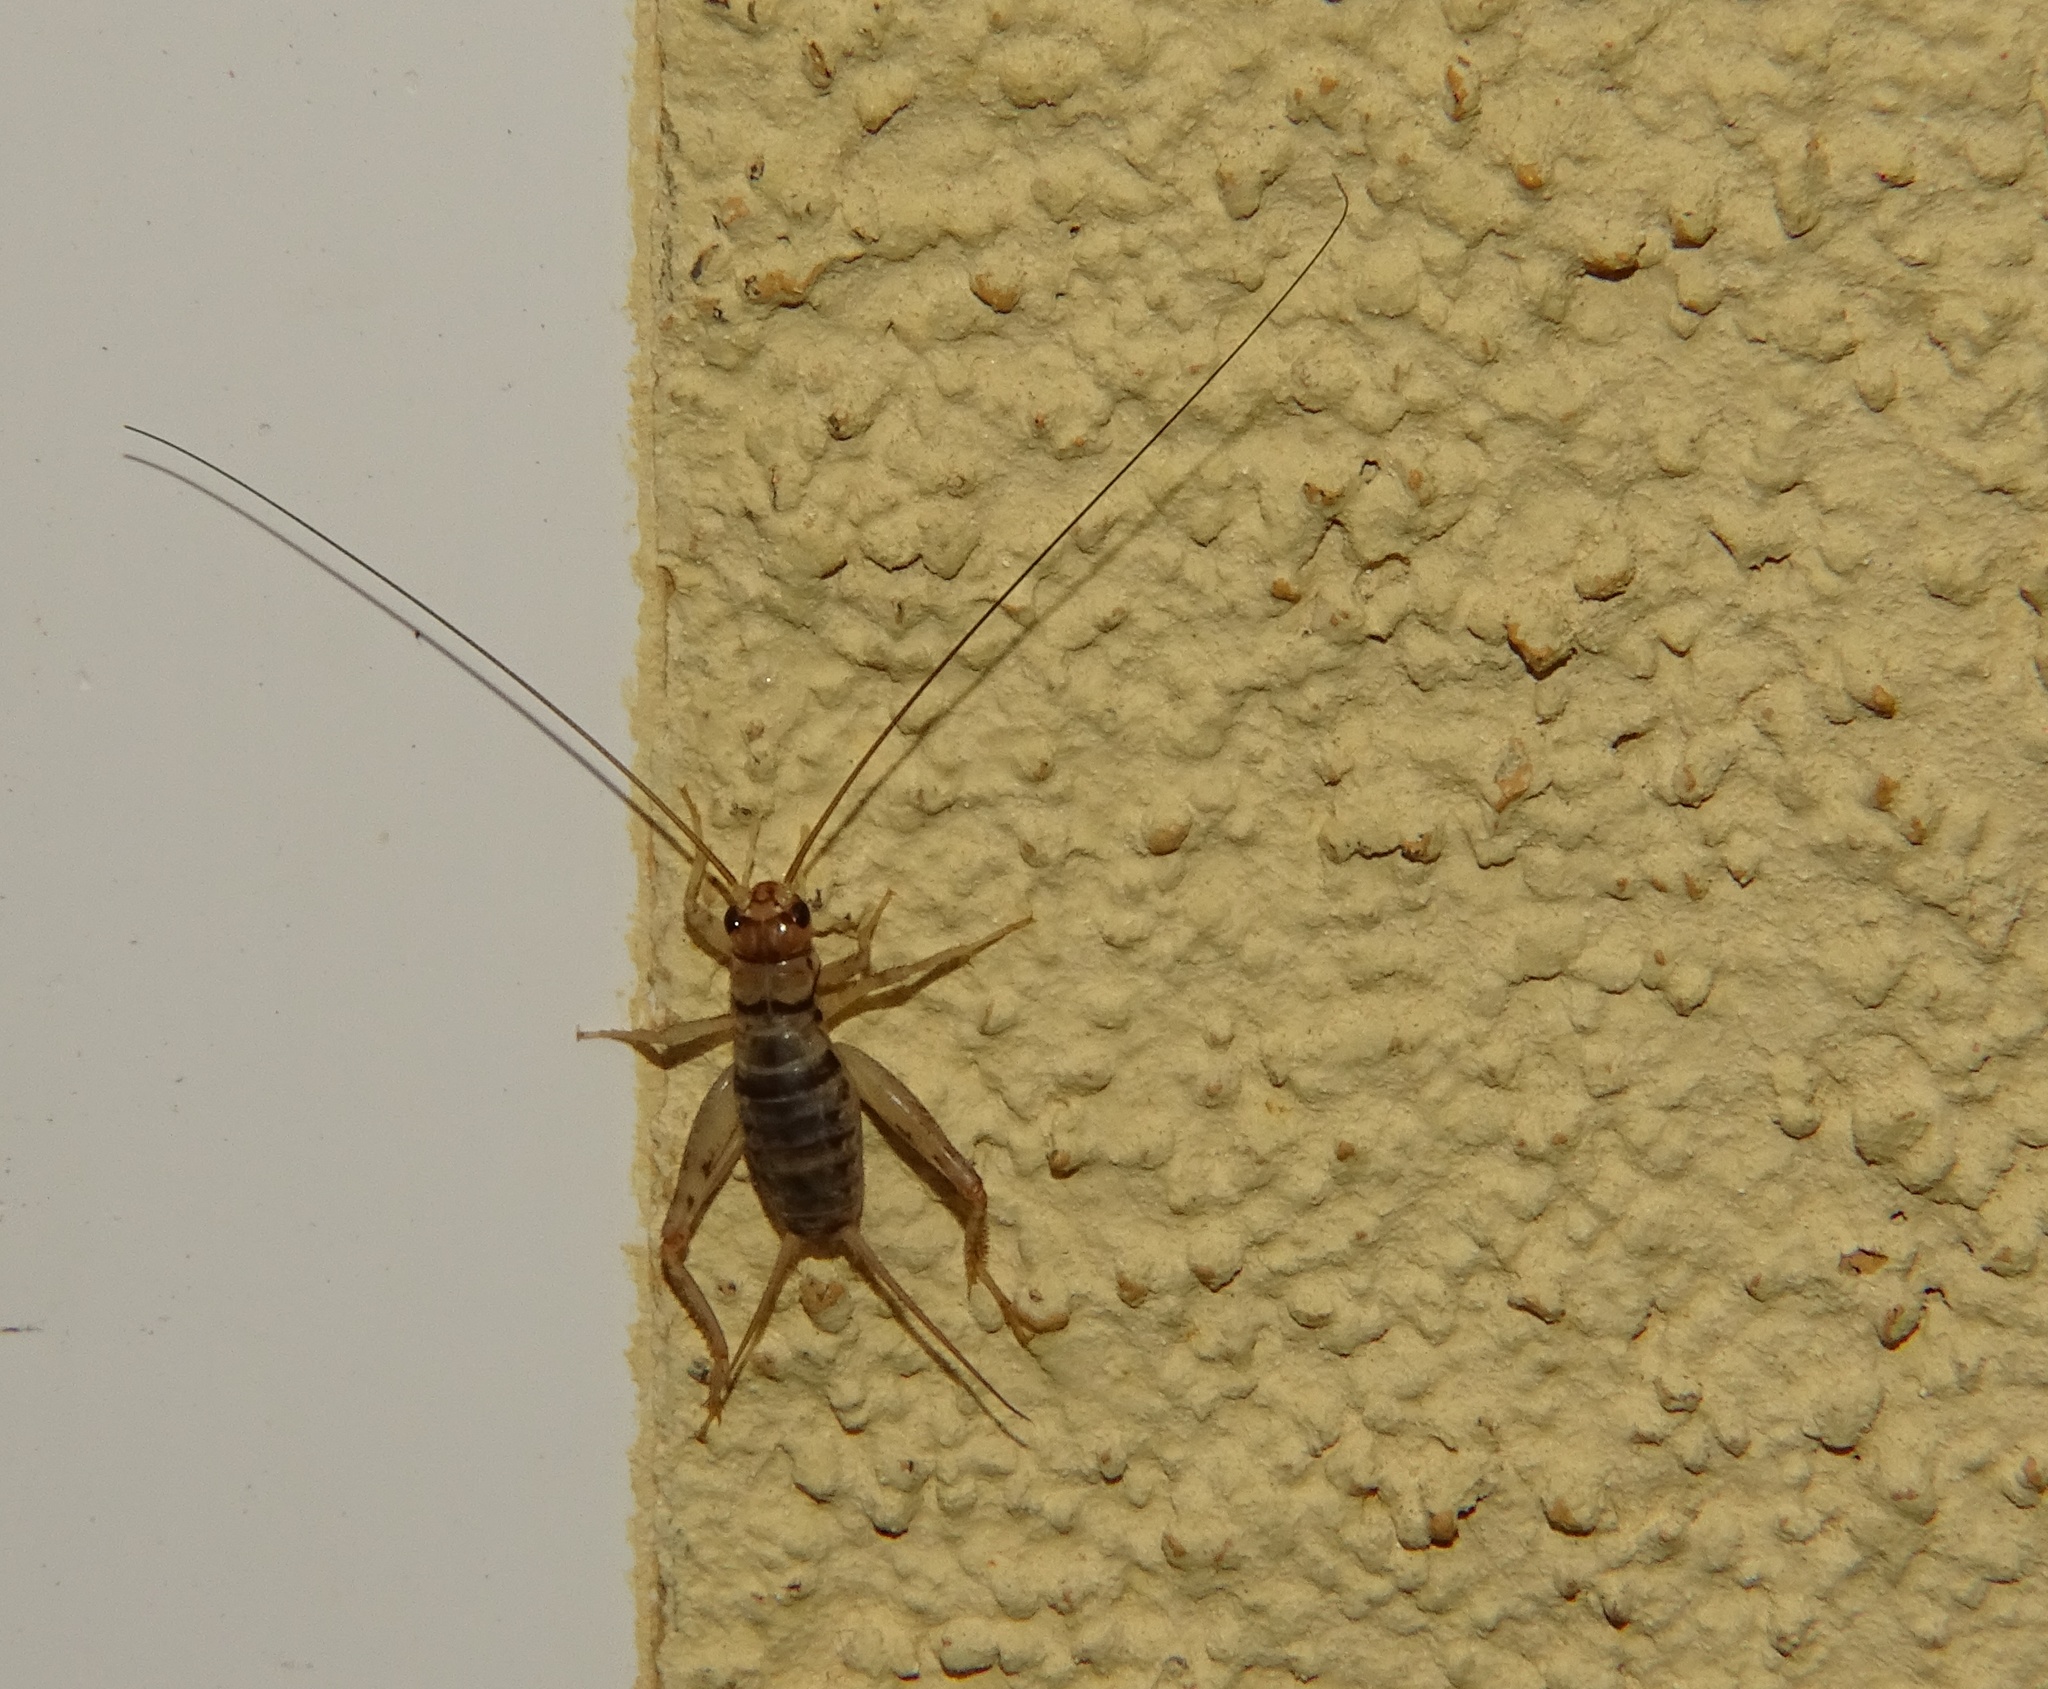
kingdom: Animalia
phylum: Arthropoda
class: Insecta
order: Orthoptera
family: Gryllidae
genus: Gryllodes
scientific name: Gryllodes sigillatus
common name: Tropical house cricket
